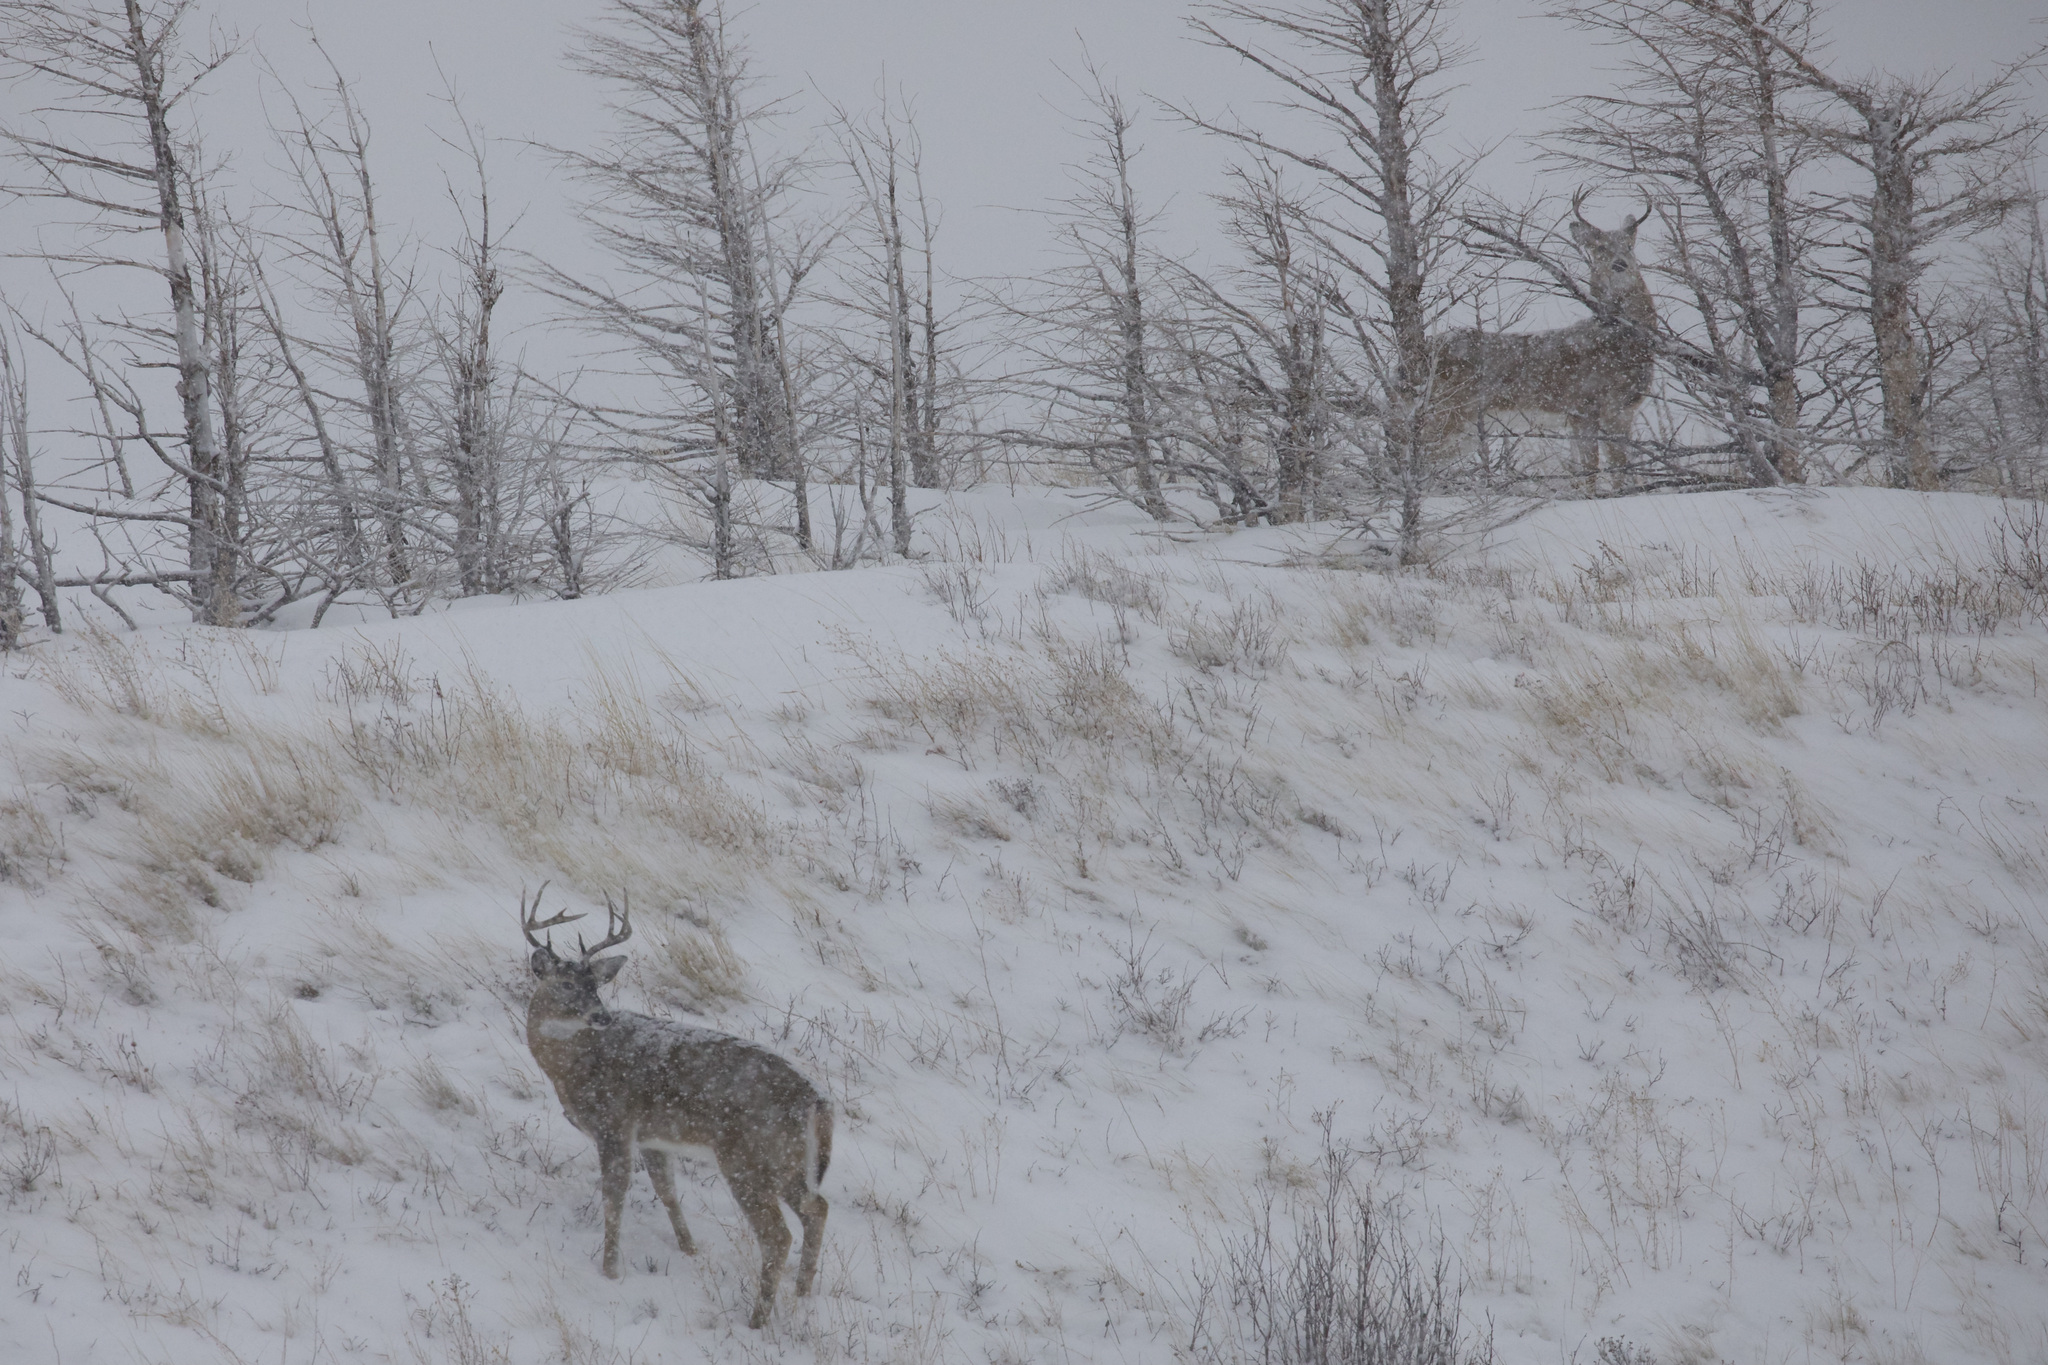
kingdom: Animalia
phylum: Chordata
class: Mammalia
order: Artiodactyla
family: Cervidae
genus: Odocoileus
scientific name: Odocoileus virginianus
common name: White-tailed deer
